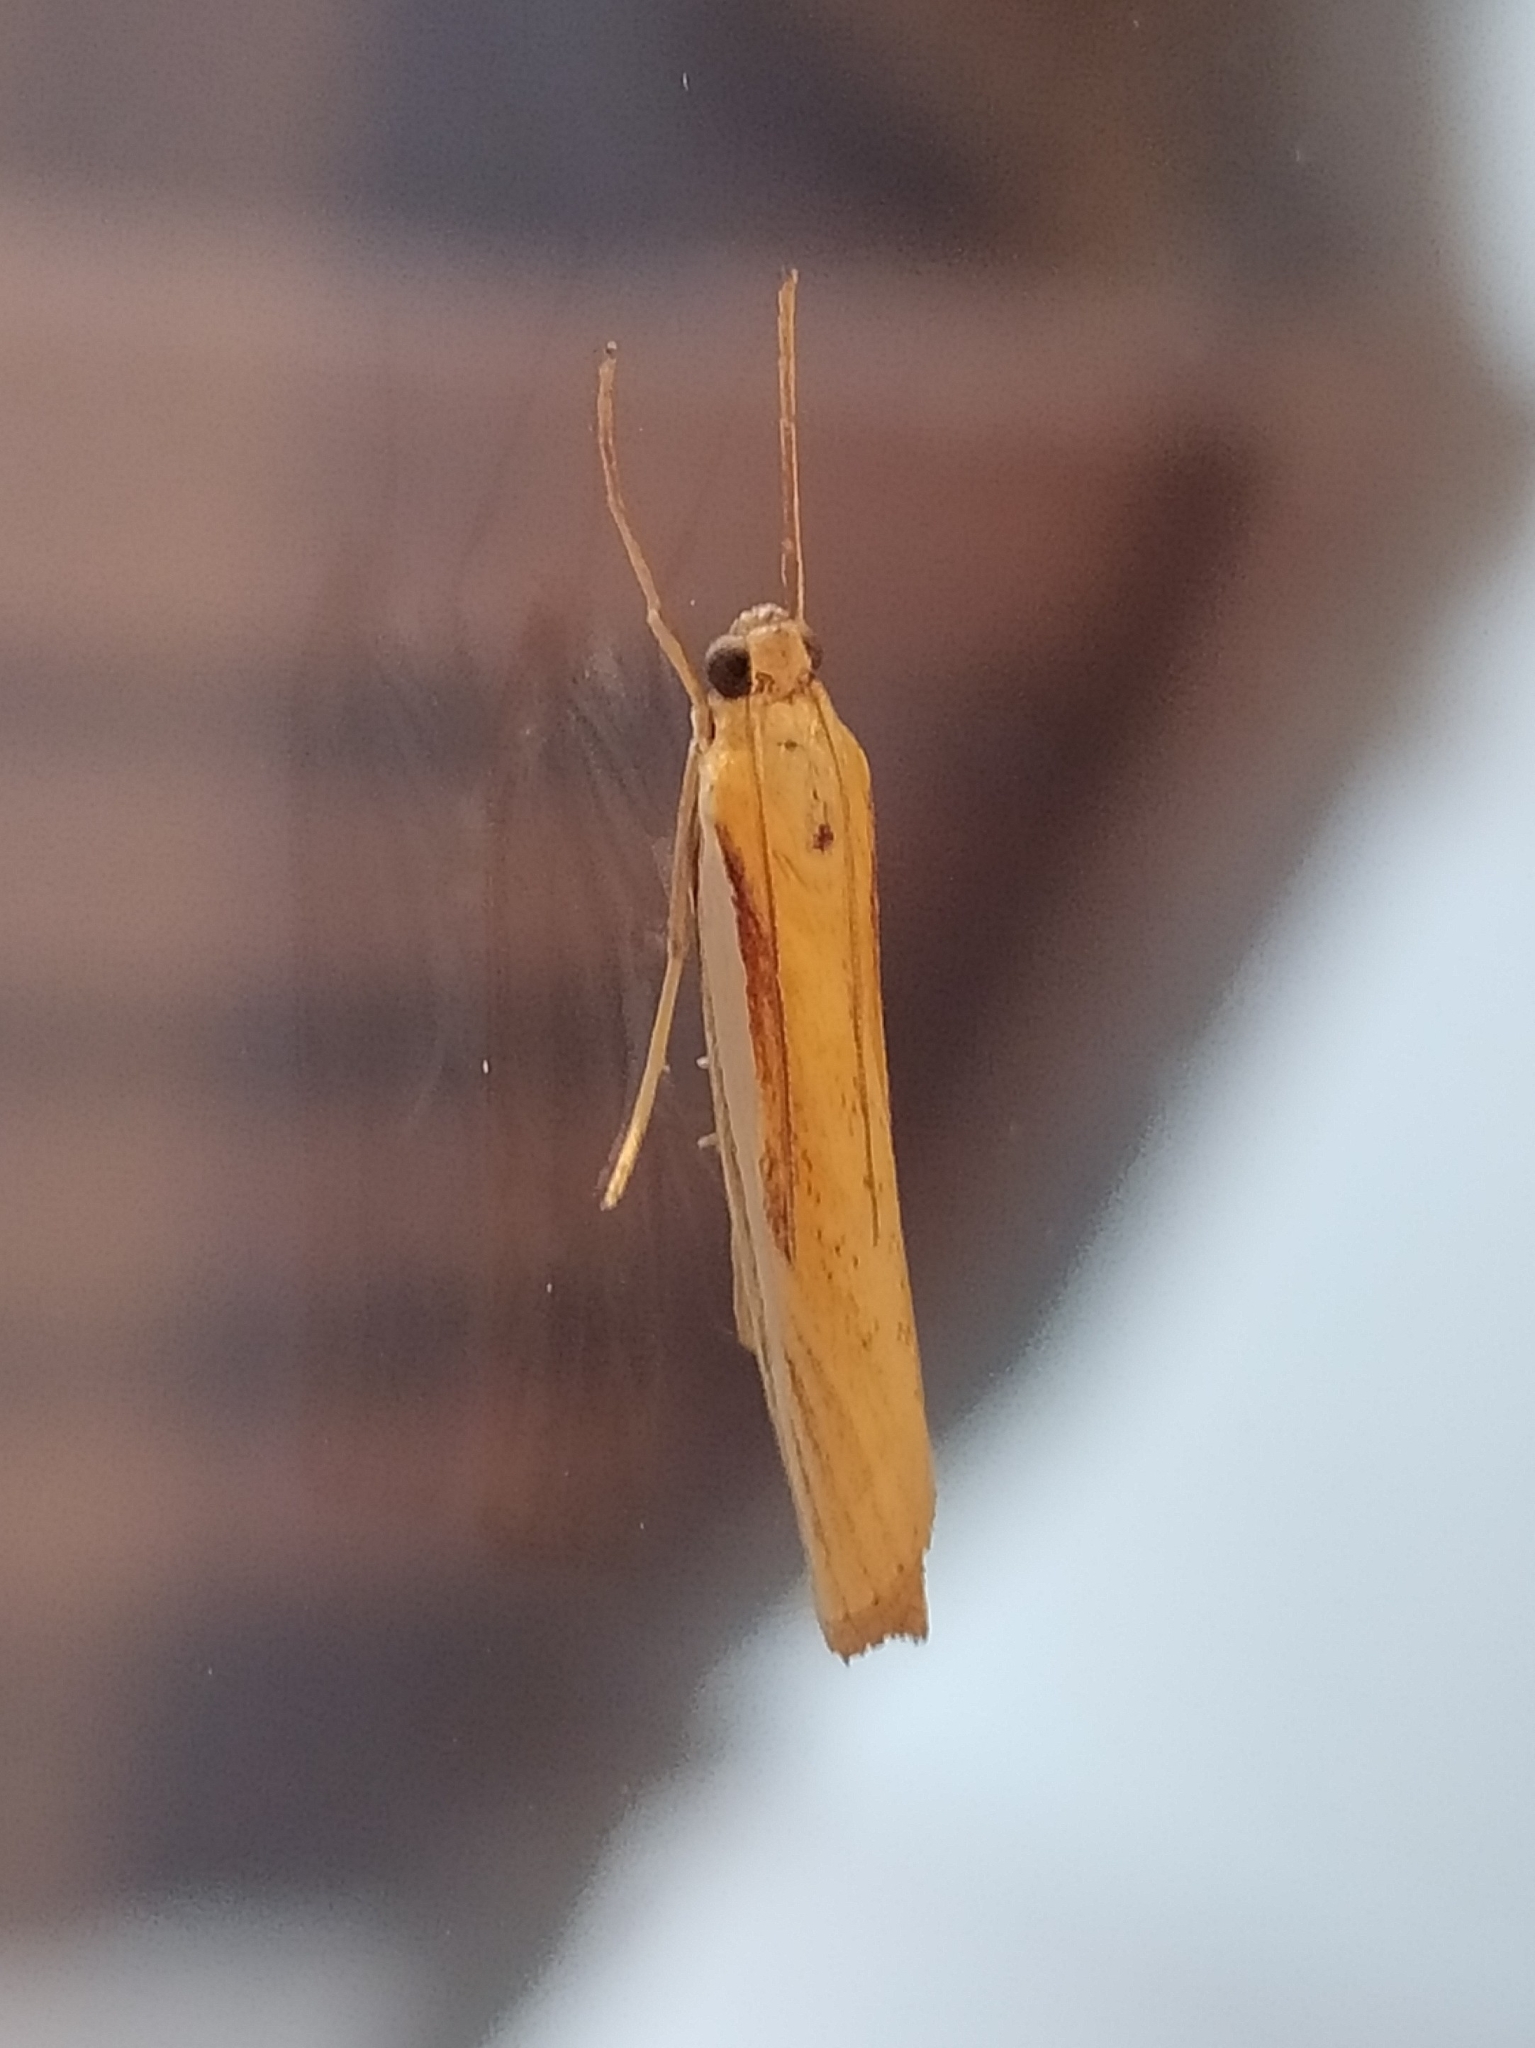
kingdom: Animalia
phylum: Arthropoda
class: Insecta
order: Lepidoptera
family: Crambidae
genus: Agriphila
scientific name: Agriphila tristellus
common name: Common grass-veneer
